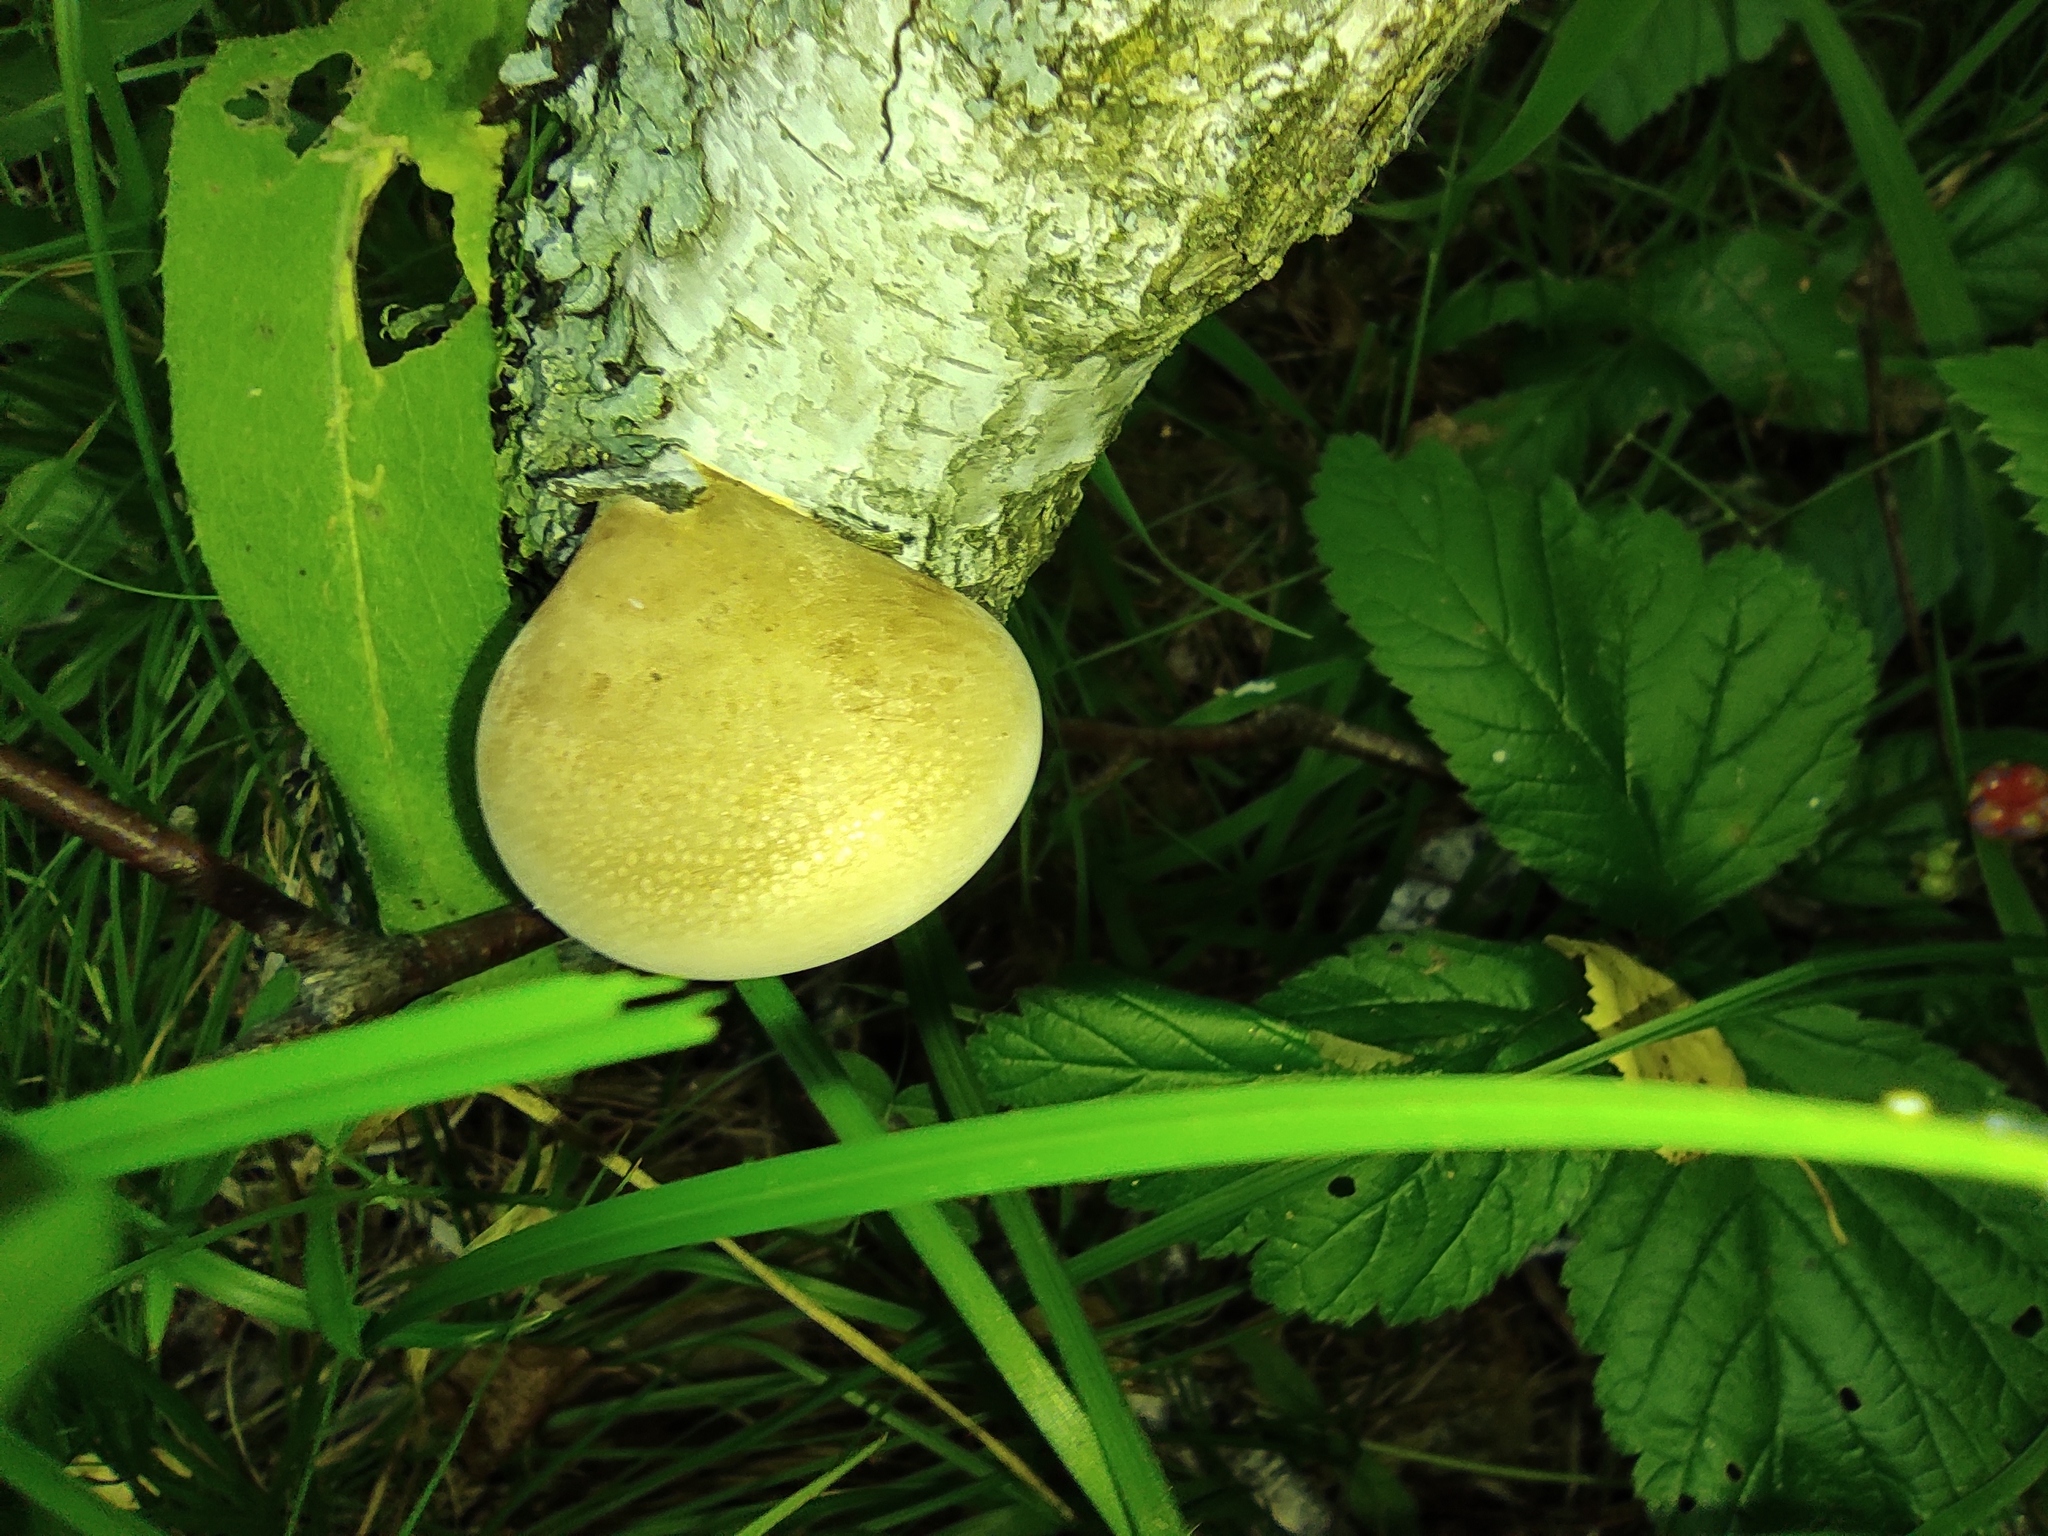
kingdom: Fungi
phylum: Basidiomycota
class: Agaricomycetes
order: Polyporales
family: Fomitopsidaceae
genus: Fomitopsis
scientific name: Fomitopsis betulina
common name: Birch polypore
